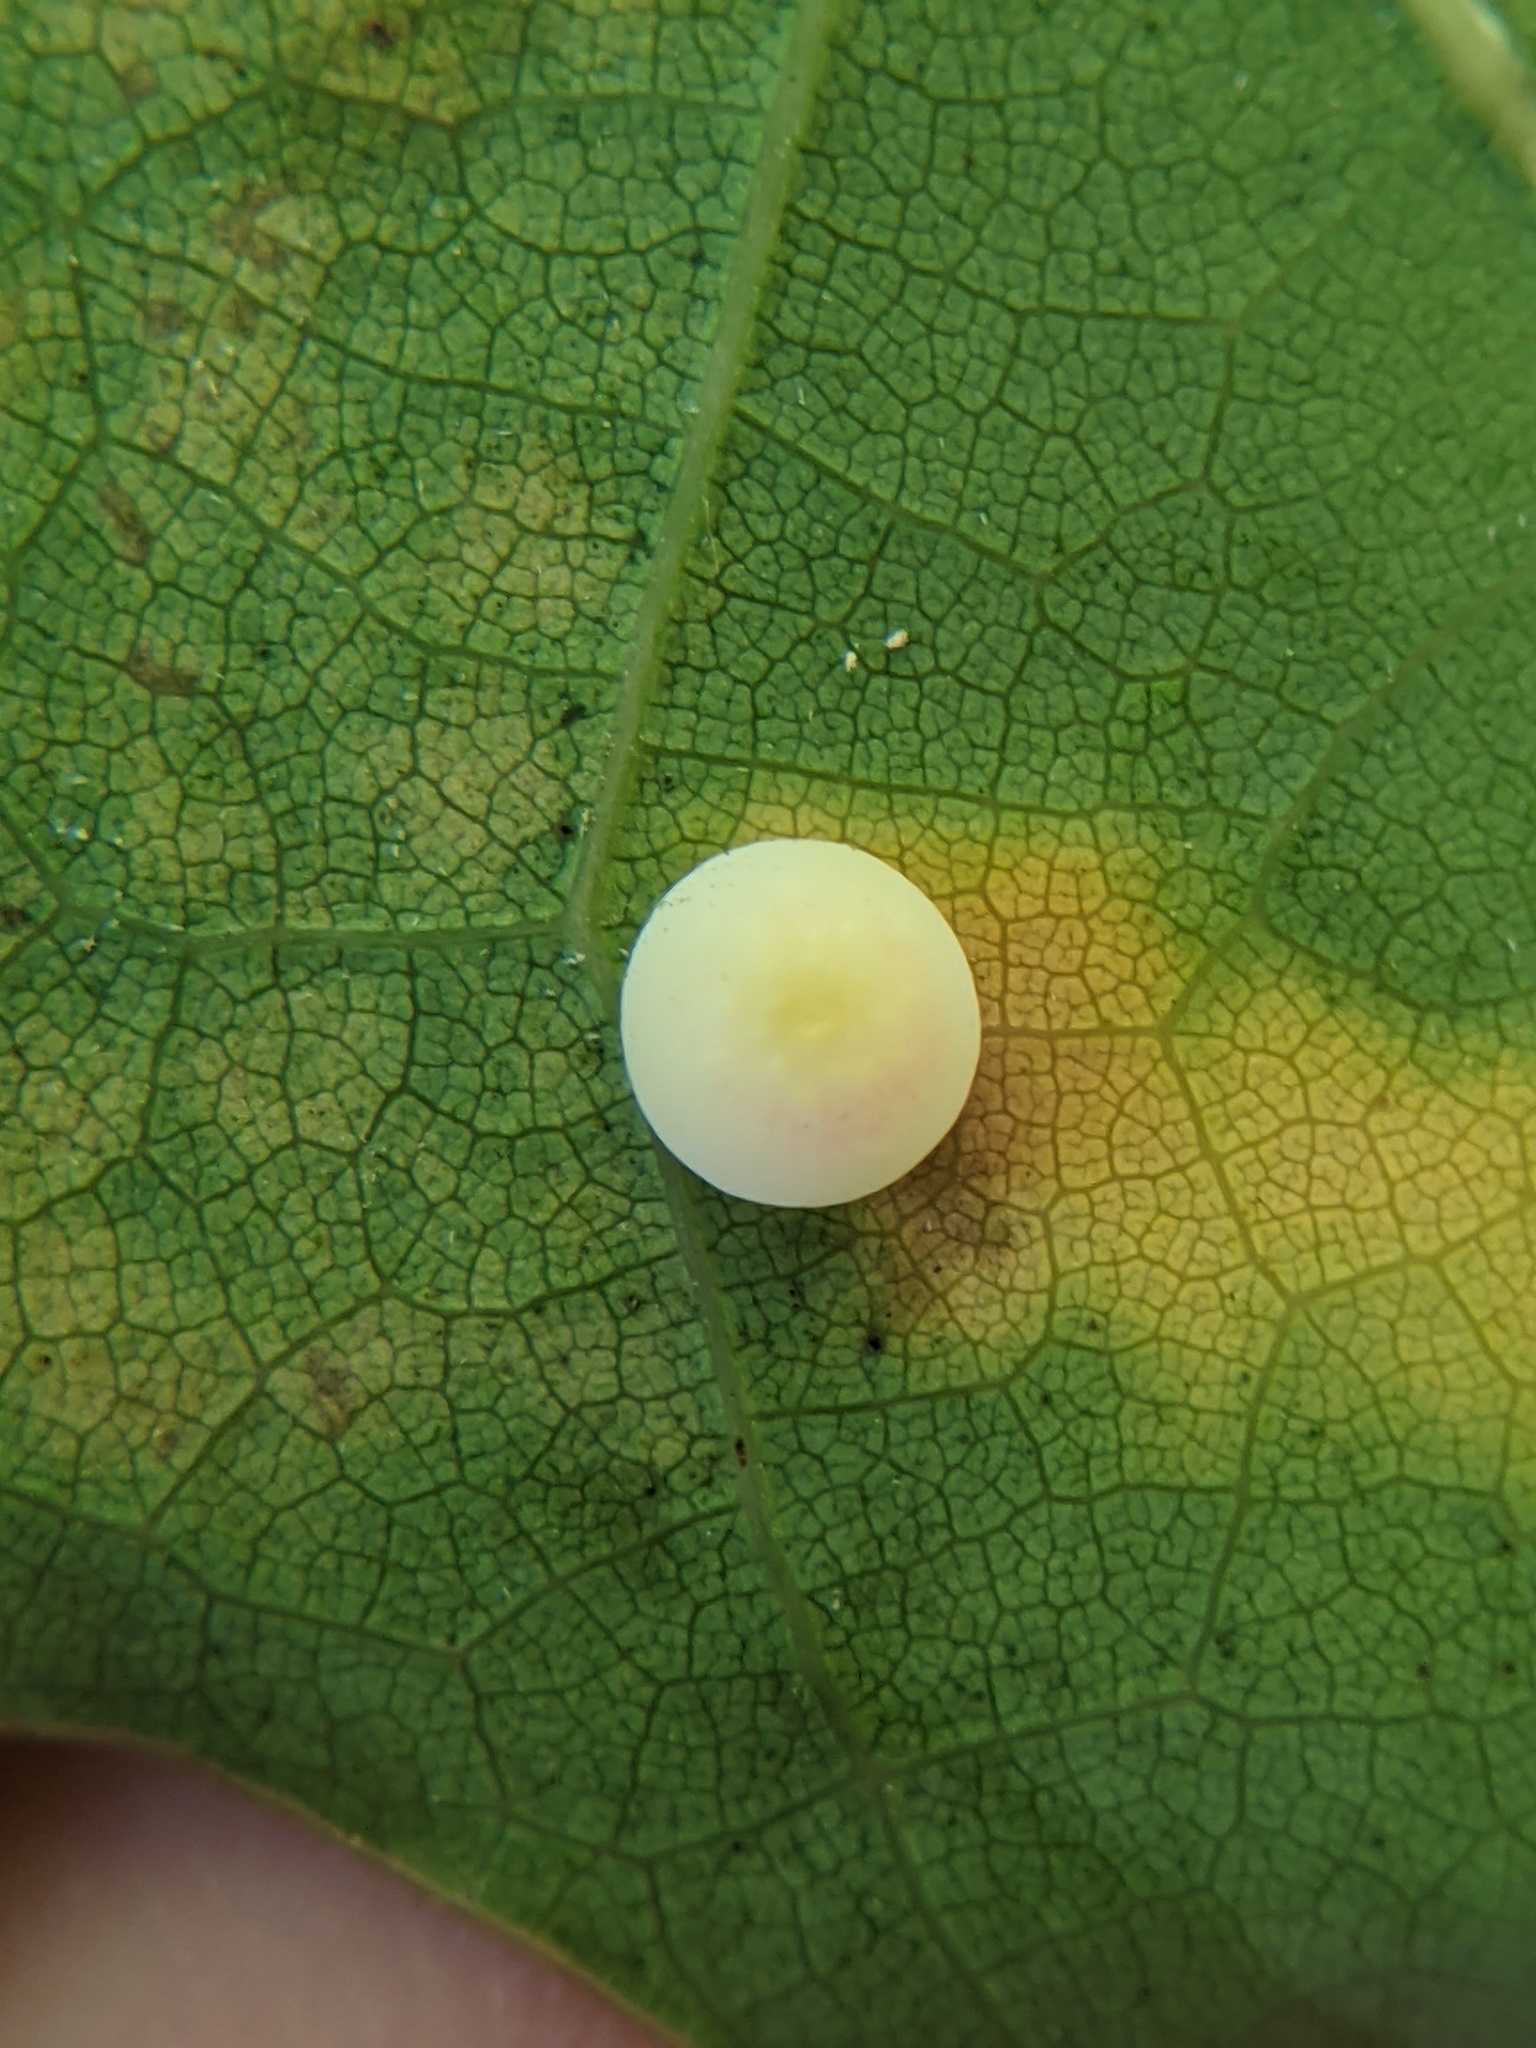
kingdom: Animalia
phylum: Arthropoda
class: Insecta
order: Hymenoptera
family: Cynipidae
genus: Zopheroteras
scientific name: Zopheroteras
